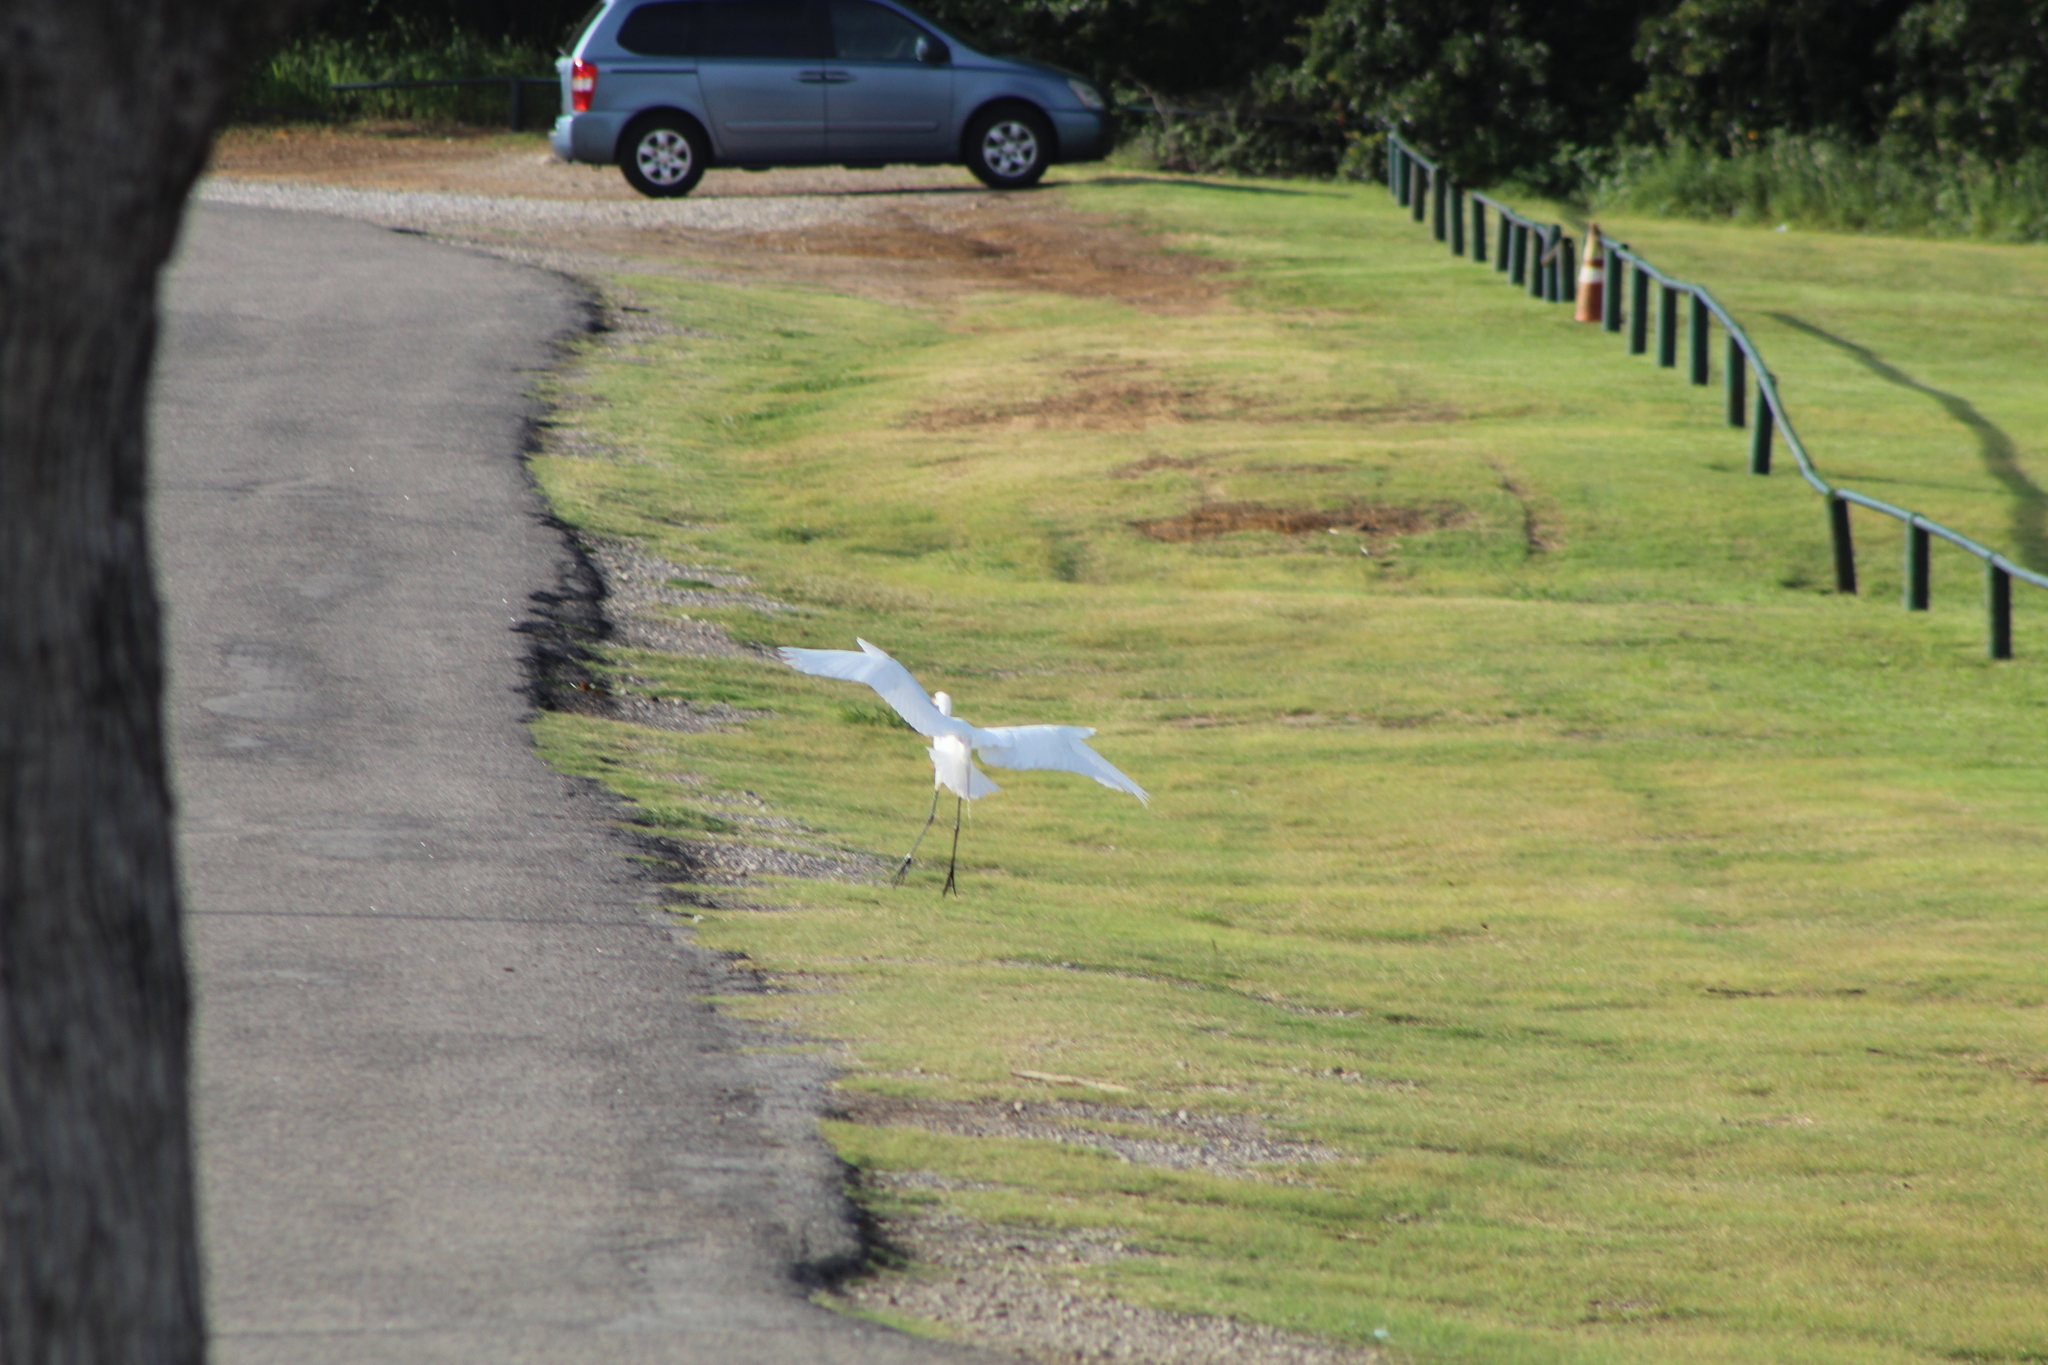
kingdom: Animalia
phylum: Chordata
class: Aves
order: Pelecaniformes
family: Ardeidae
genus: Ardea
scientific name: Ardea alba
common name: Great egret
